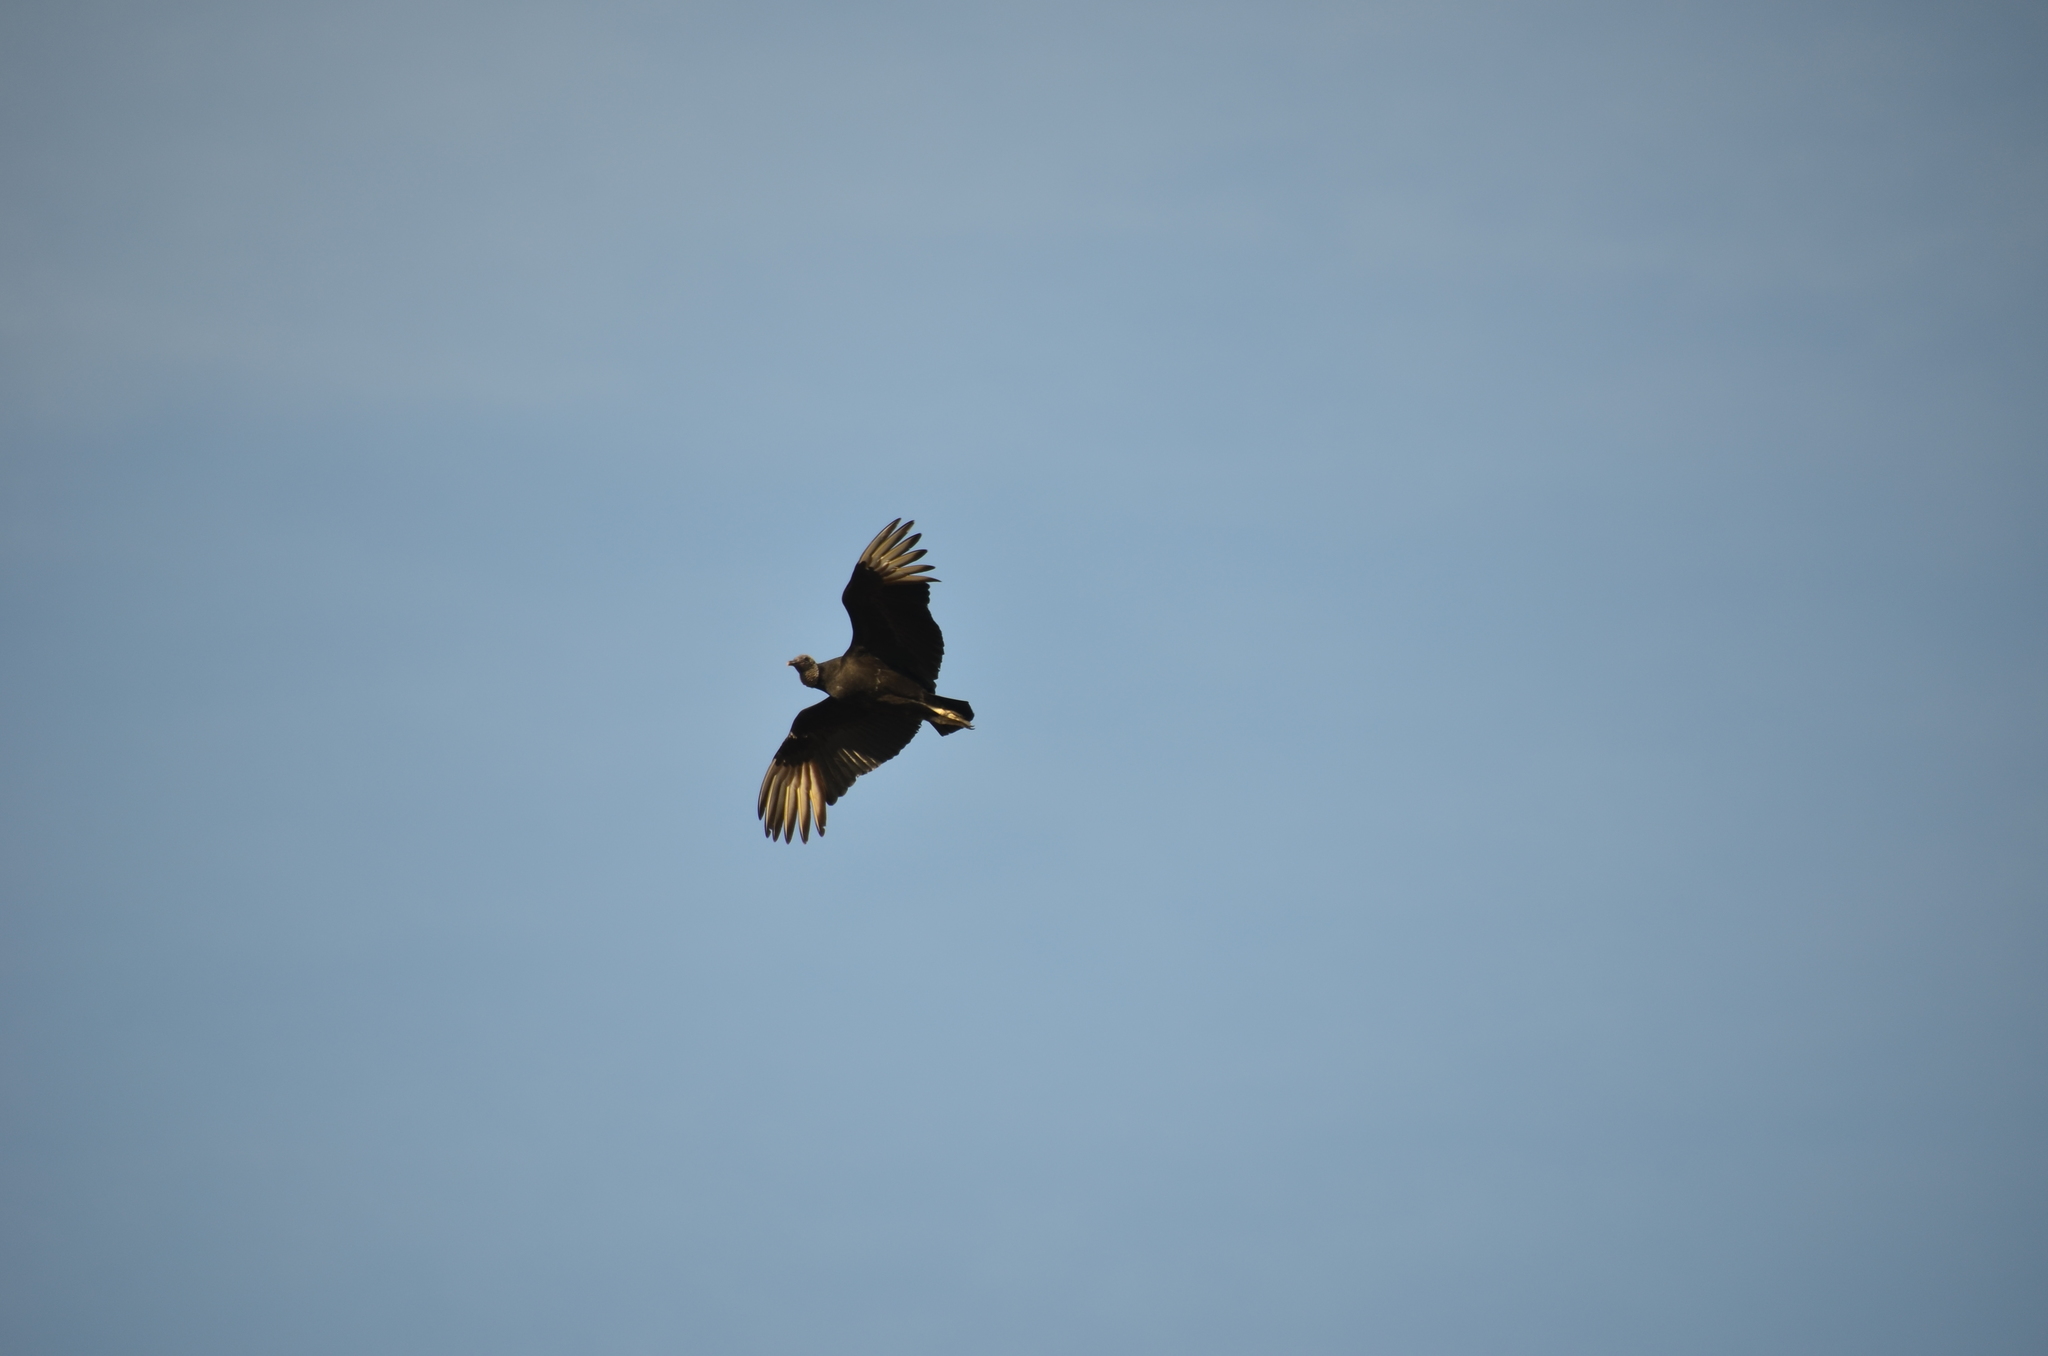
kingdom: Animalia
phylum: Chordata
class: Aves
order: Accipitriformes
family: Cathartidae
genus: Coragyps
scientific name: Coragyps atratus
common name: Black vulture
